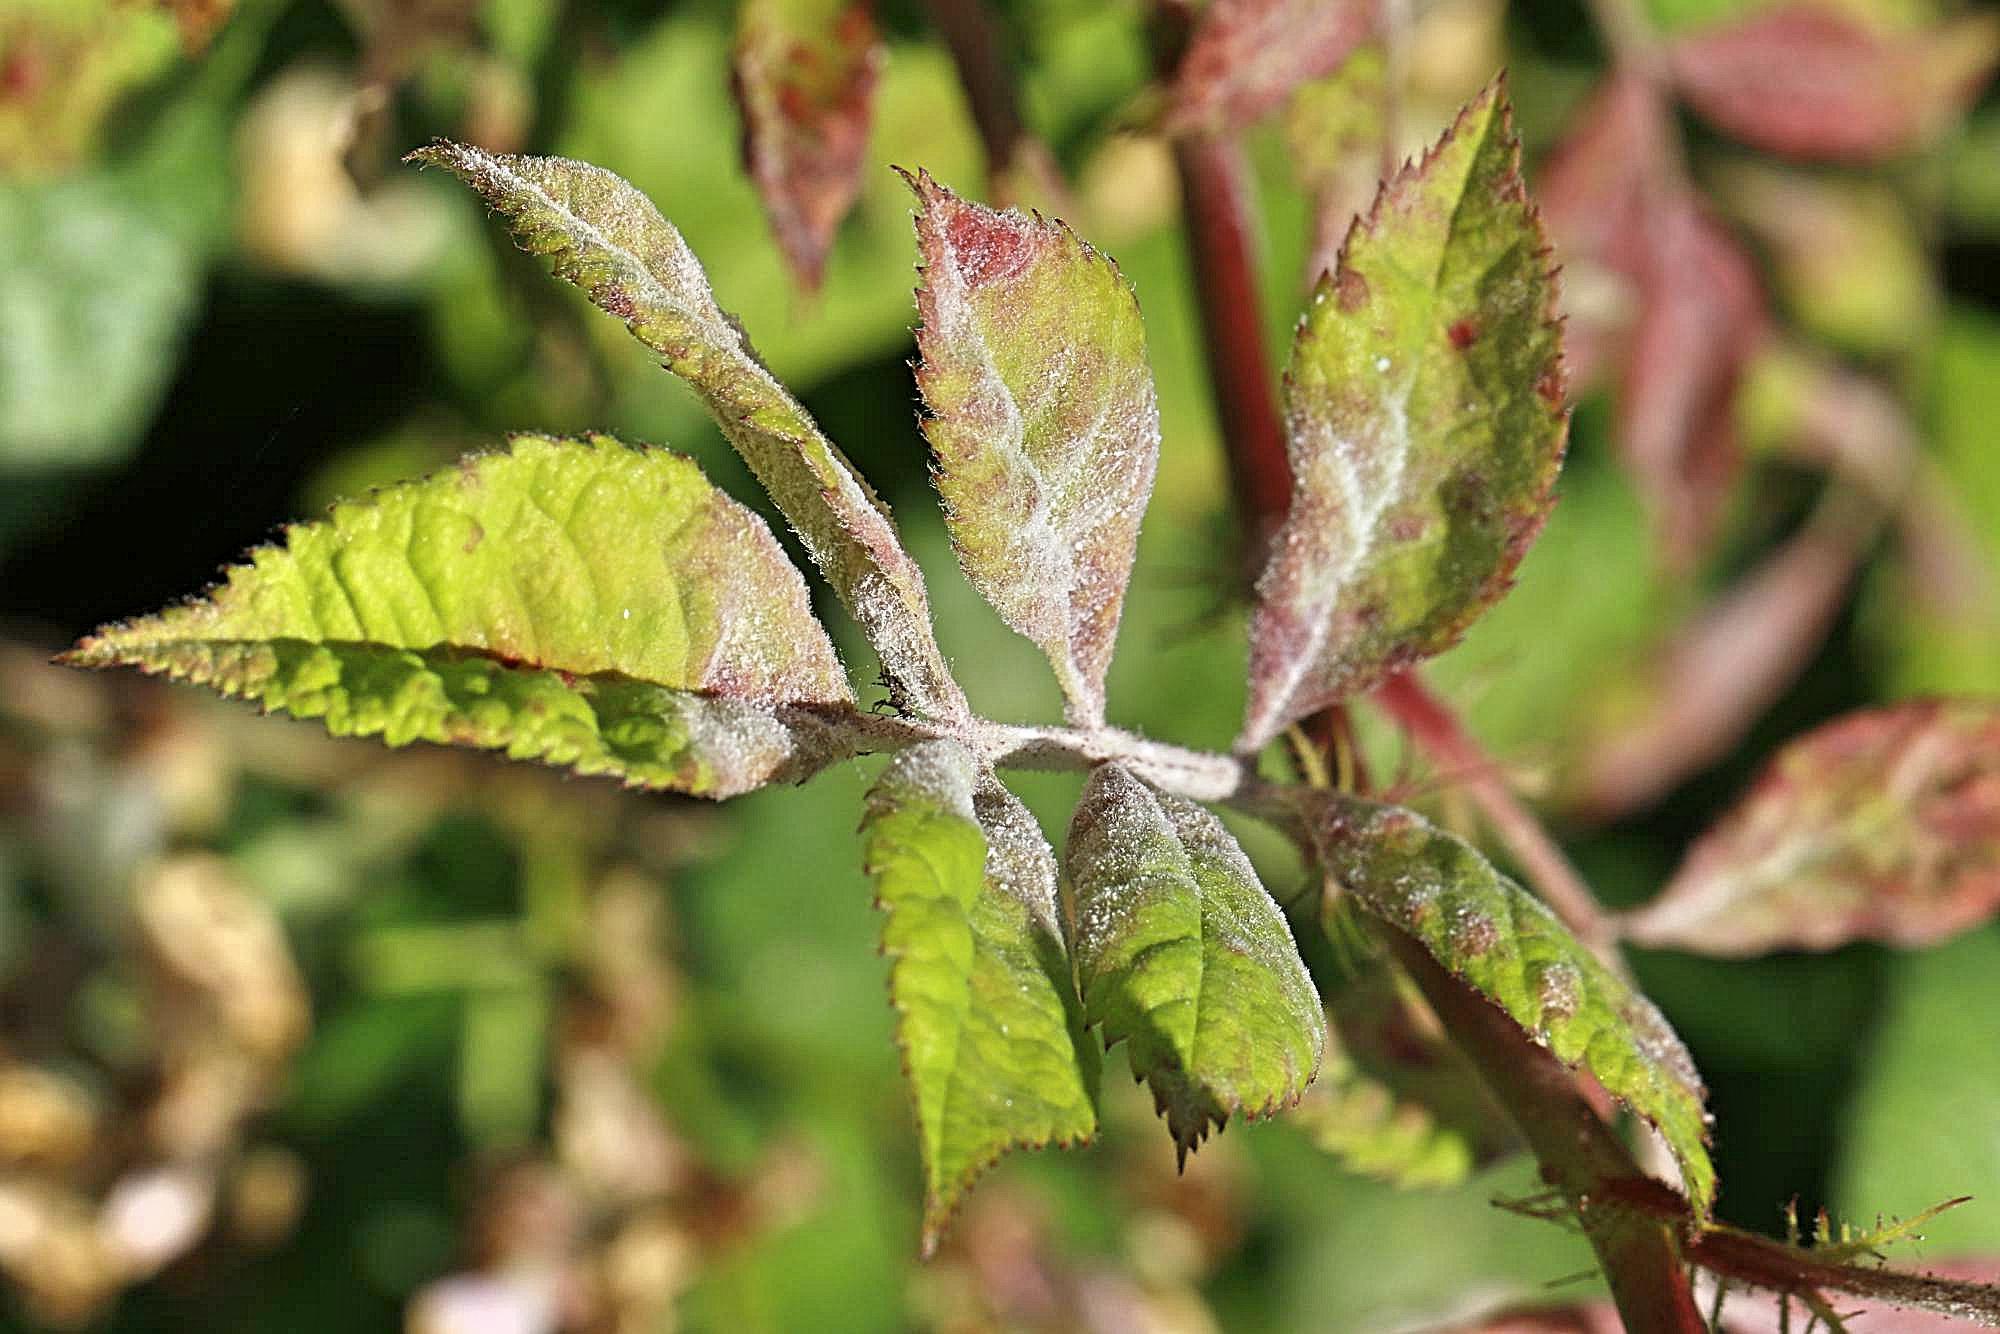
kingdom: Fungi
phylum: Ascomycota
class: Leotiomycetes
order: Helotiales
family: Erysiphaceae
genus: Podosphaera
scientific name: Podosphaera pannosa
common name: Rose mildew
